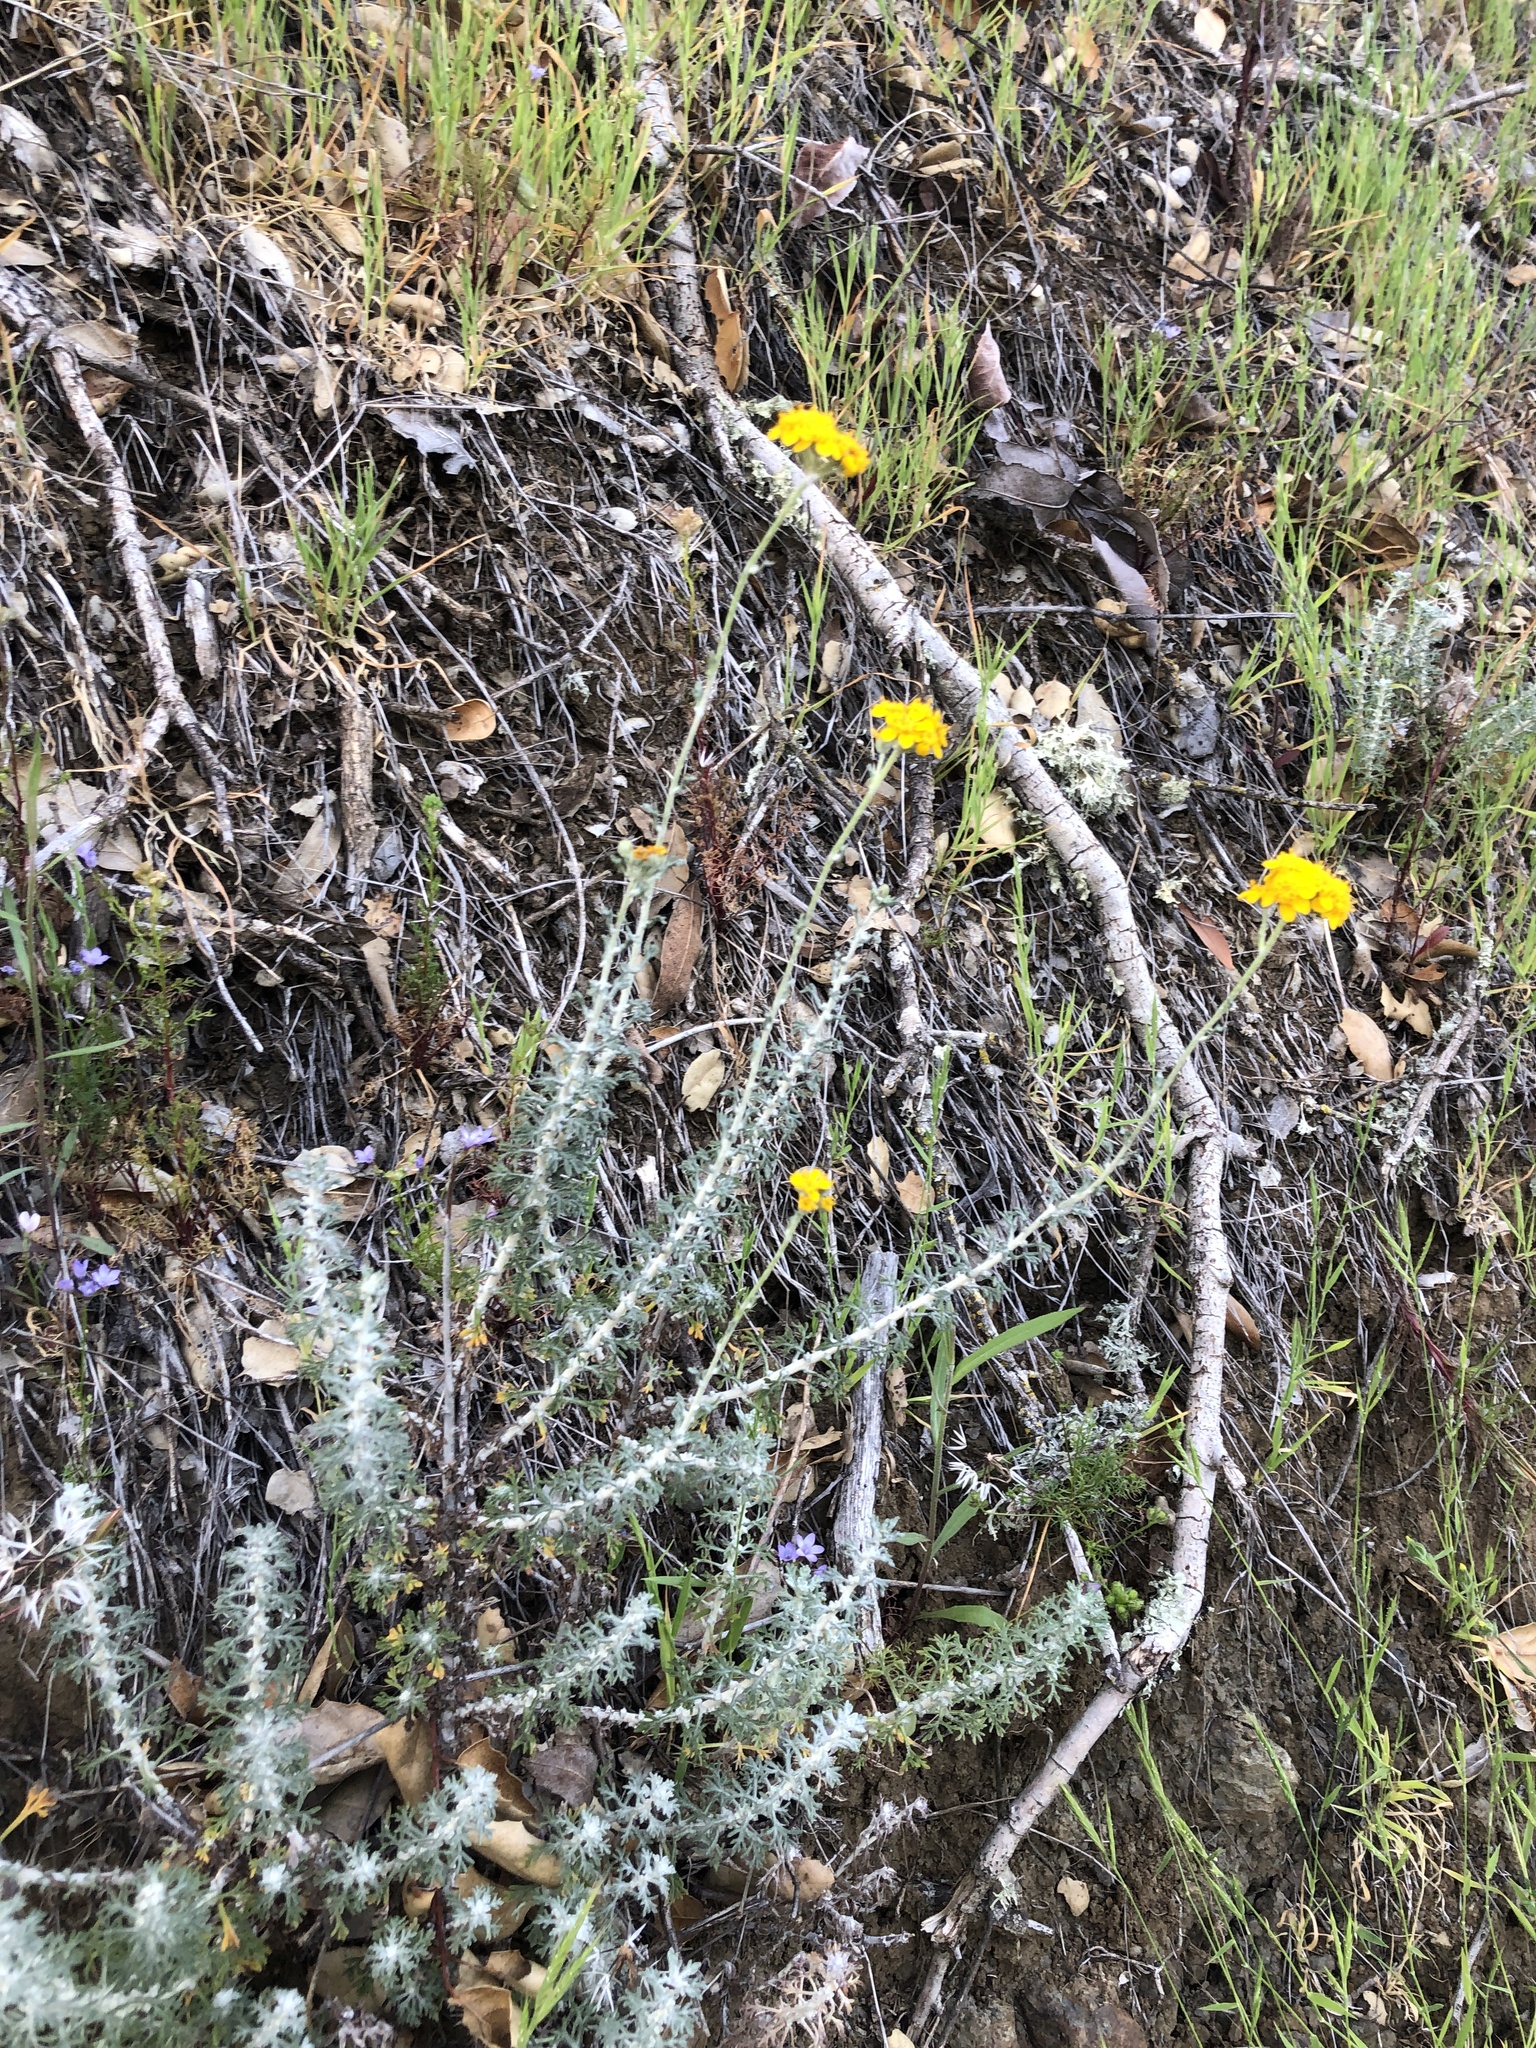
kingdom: Plantae
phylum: Tracheophyta
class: Magnoliopsida
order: Asterales
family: Asteraceae
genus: Eriophyllum
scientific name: Eriophyllum confertiflorum
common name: Golden-yarrow
